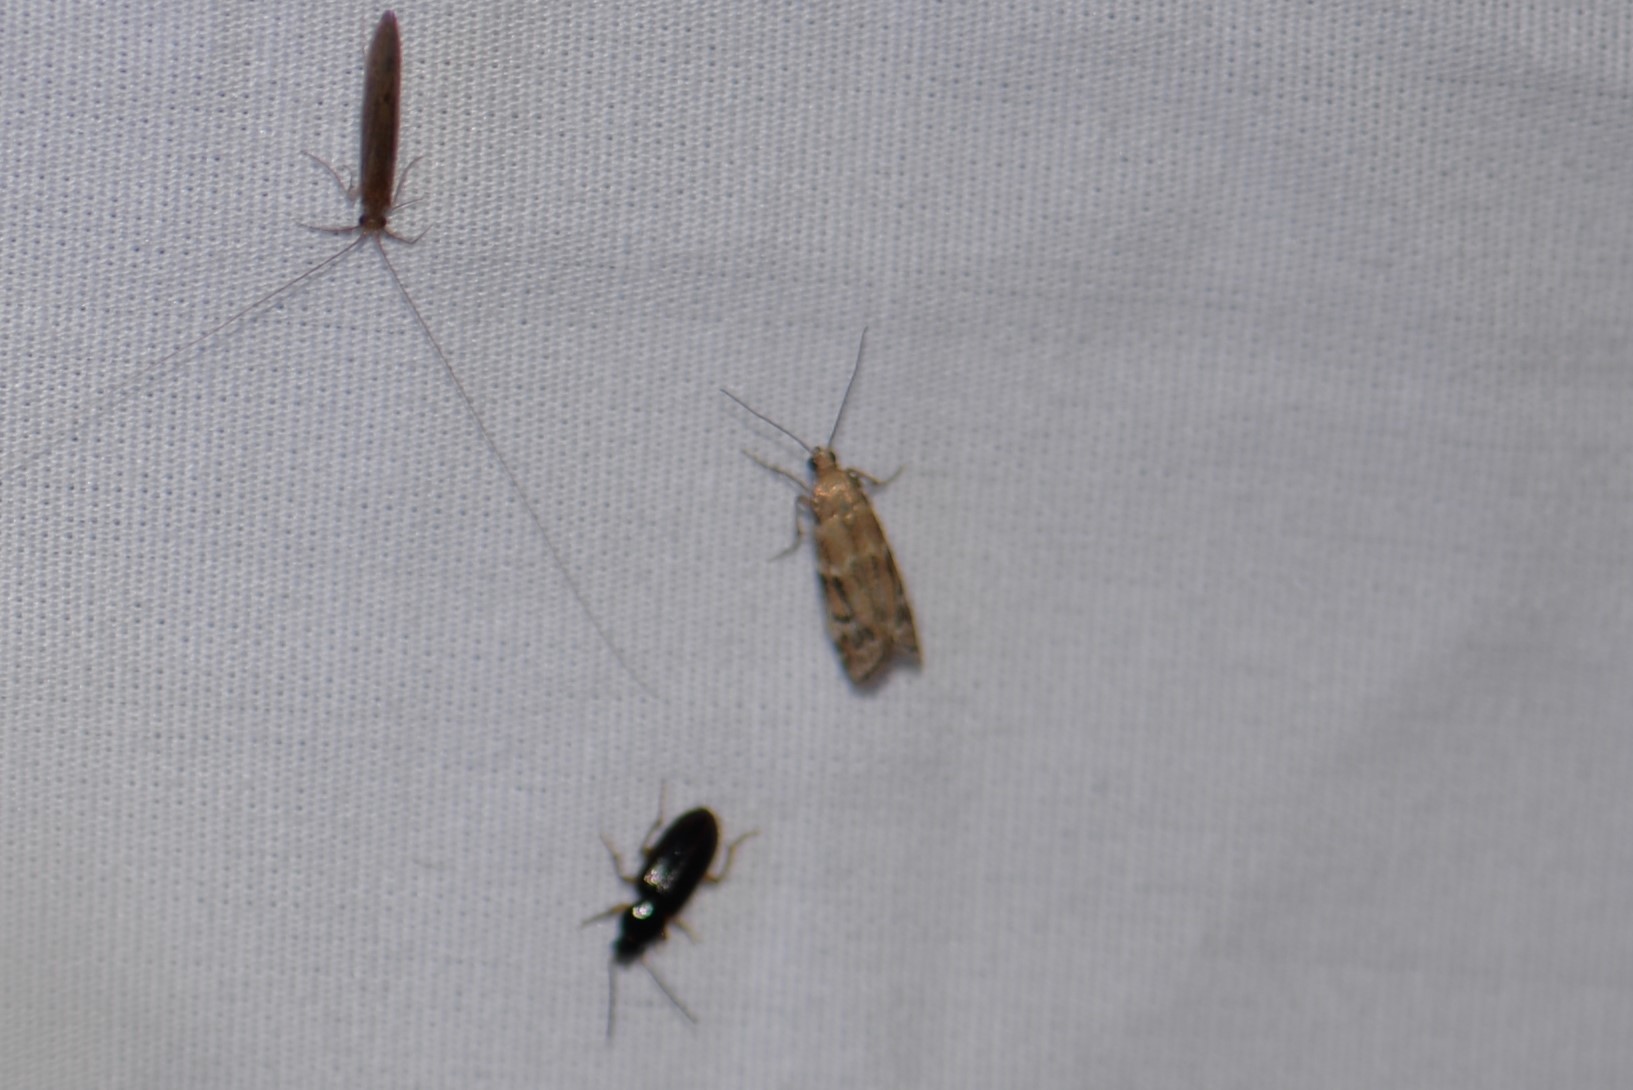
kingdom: Animalia
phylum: Arthropoda
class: Insecta
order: Lepidoptera
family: Pyralidae
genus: Vitula
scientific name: Vitula broweri
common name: Brower's vitula moth
